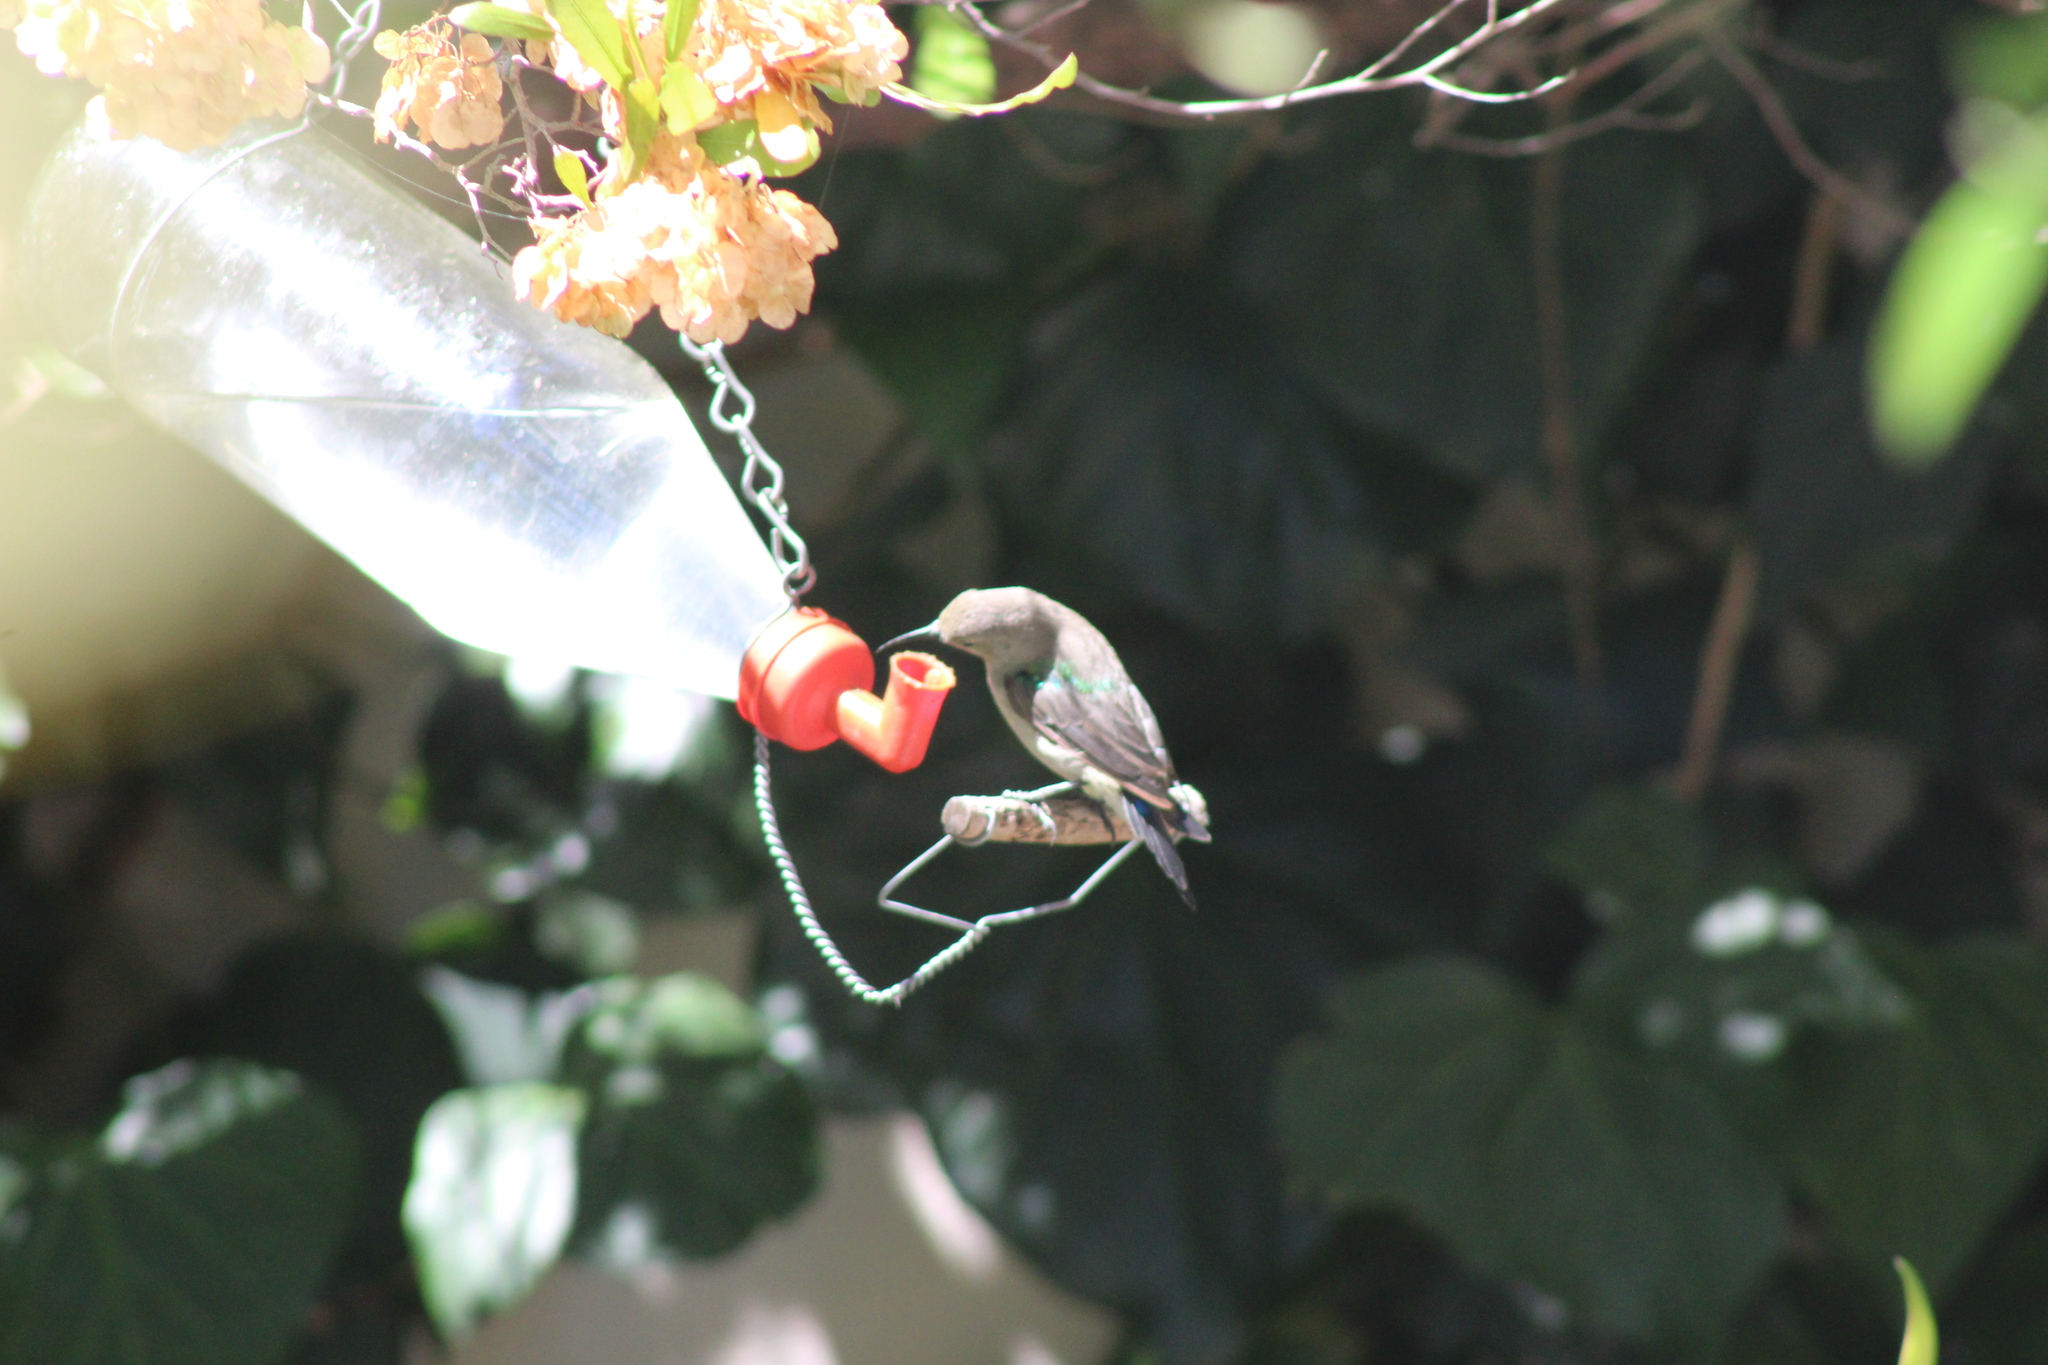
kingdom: Animalia
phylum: Chordata
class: Aves
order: Passeriformes
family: Nectariniidae
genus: Cinnyris
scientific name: Cinnyris chalybeus
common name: Southern double-collared sunbird
